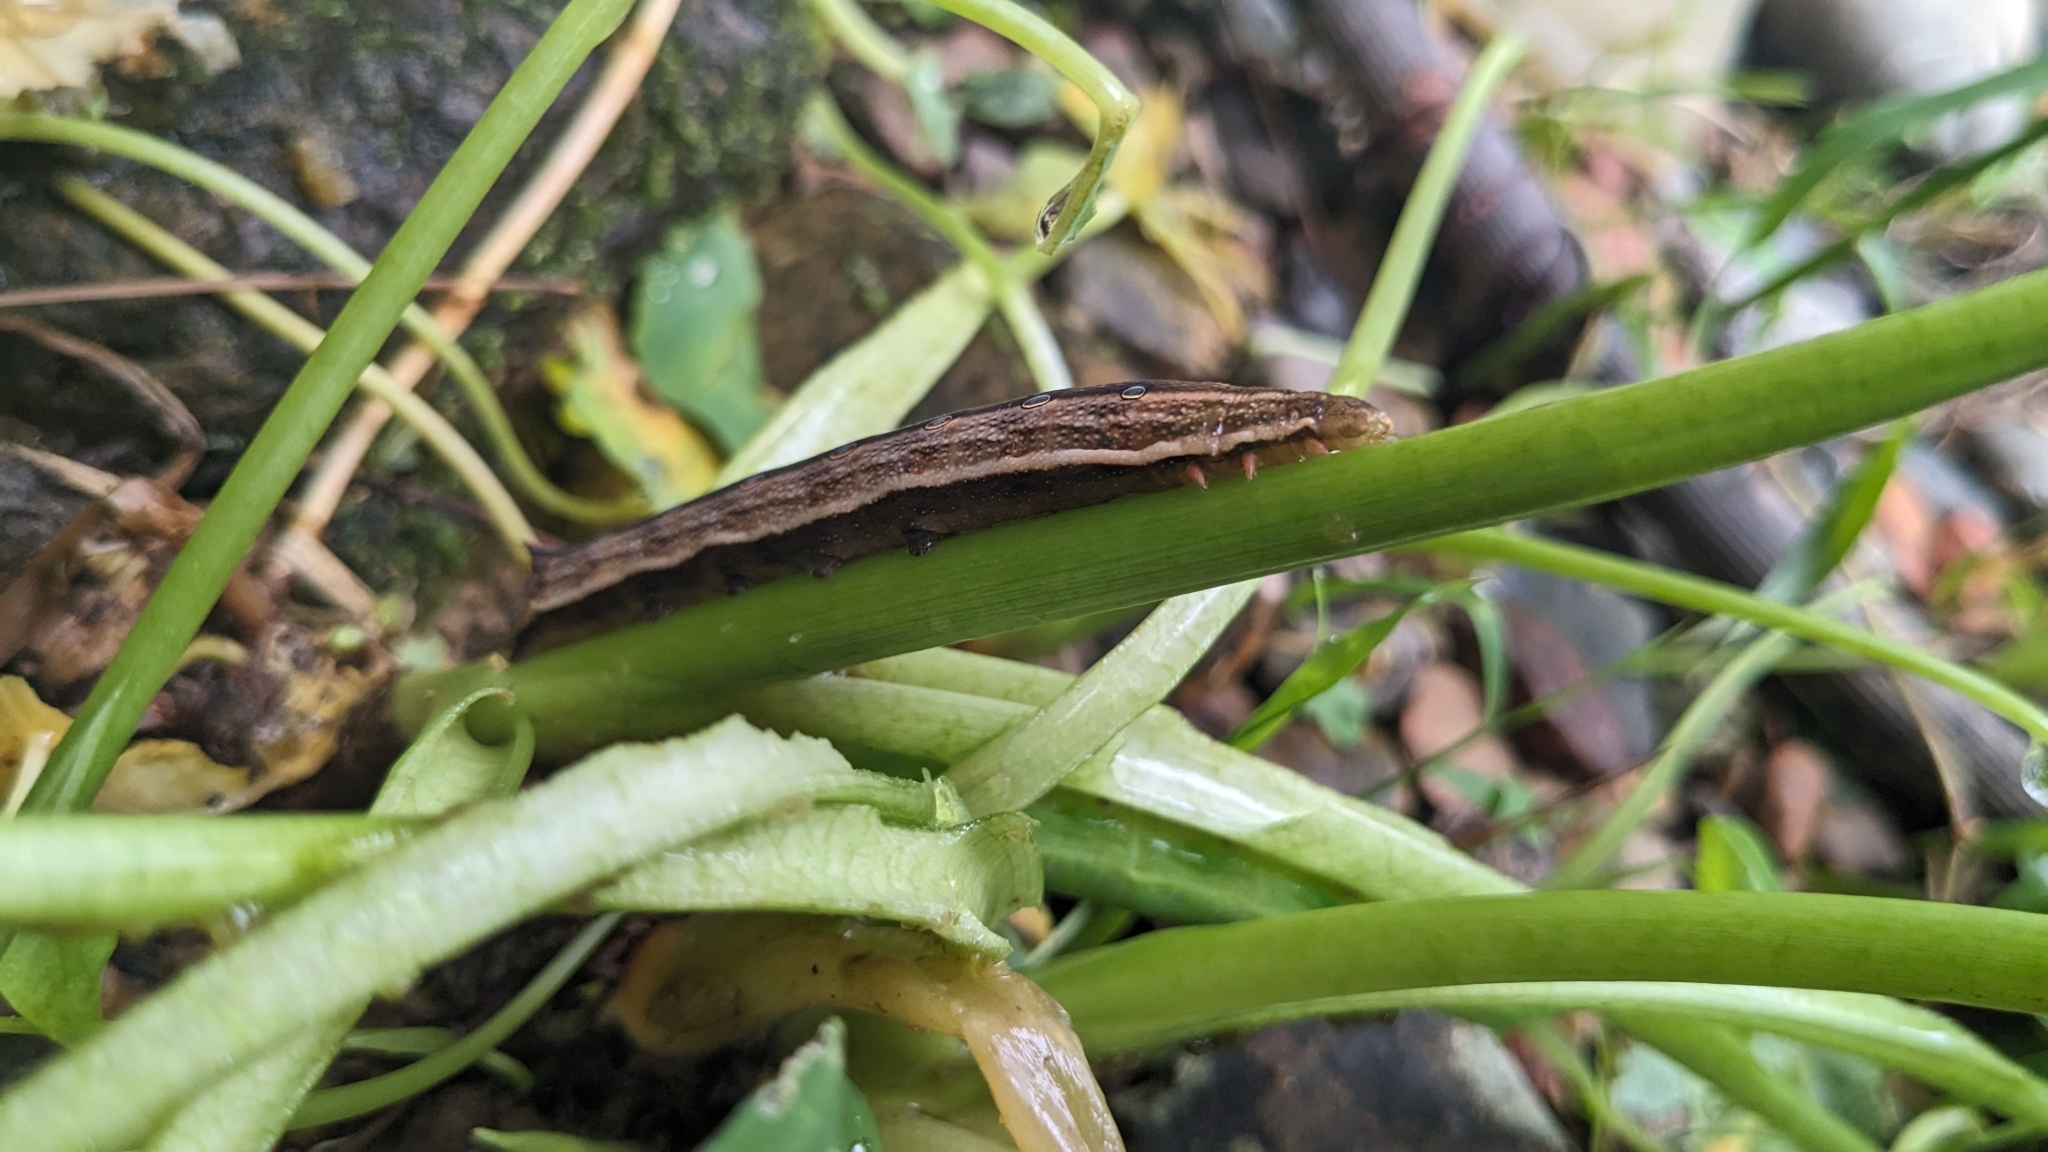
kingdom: Animalia
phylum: Arthropoda
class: Insecta
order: Lepidoptera
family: Sphingidae
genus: Theretra
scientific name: Theretra silhetensis
